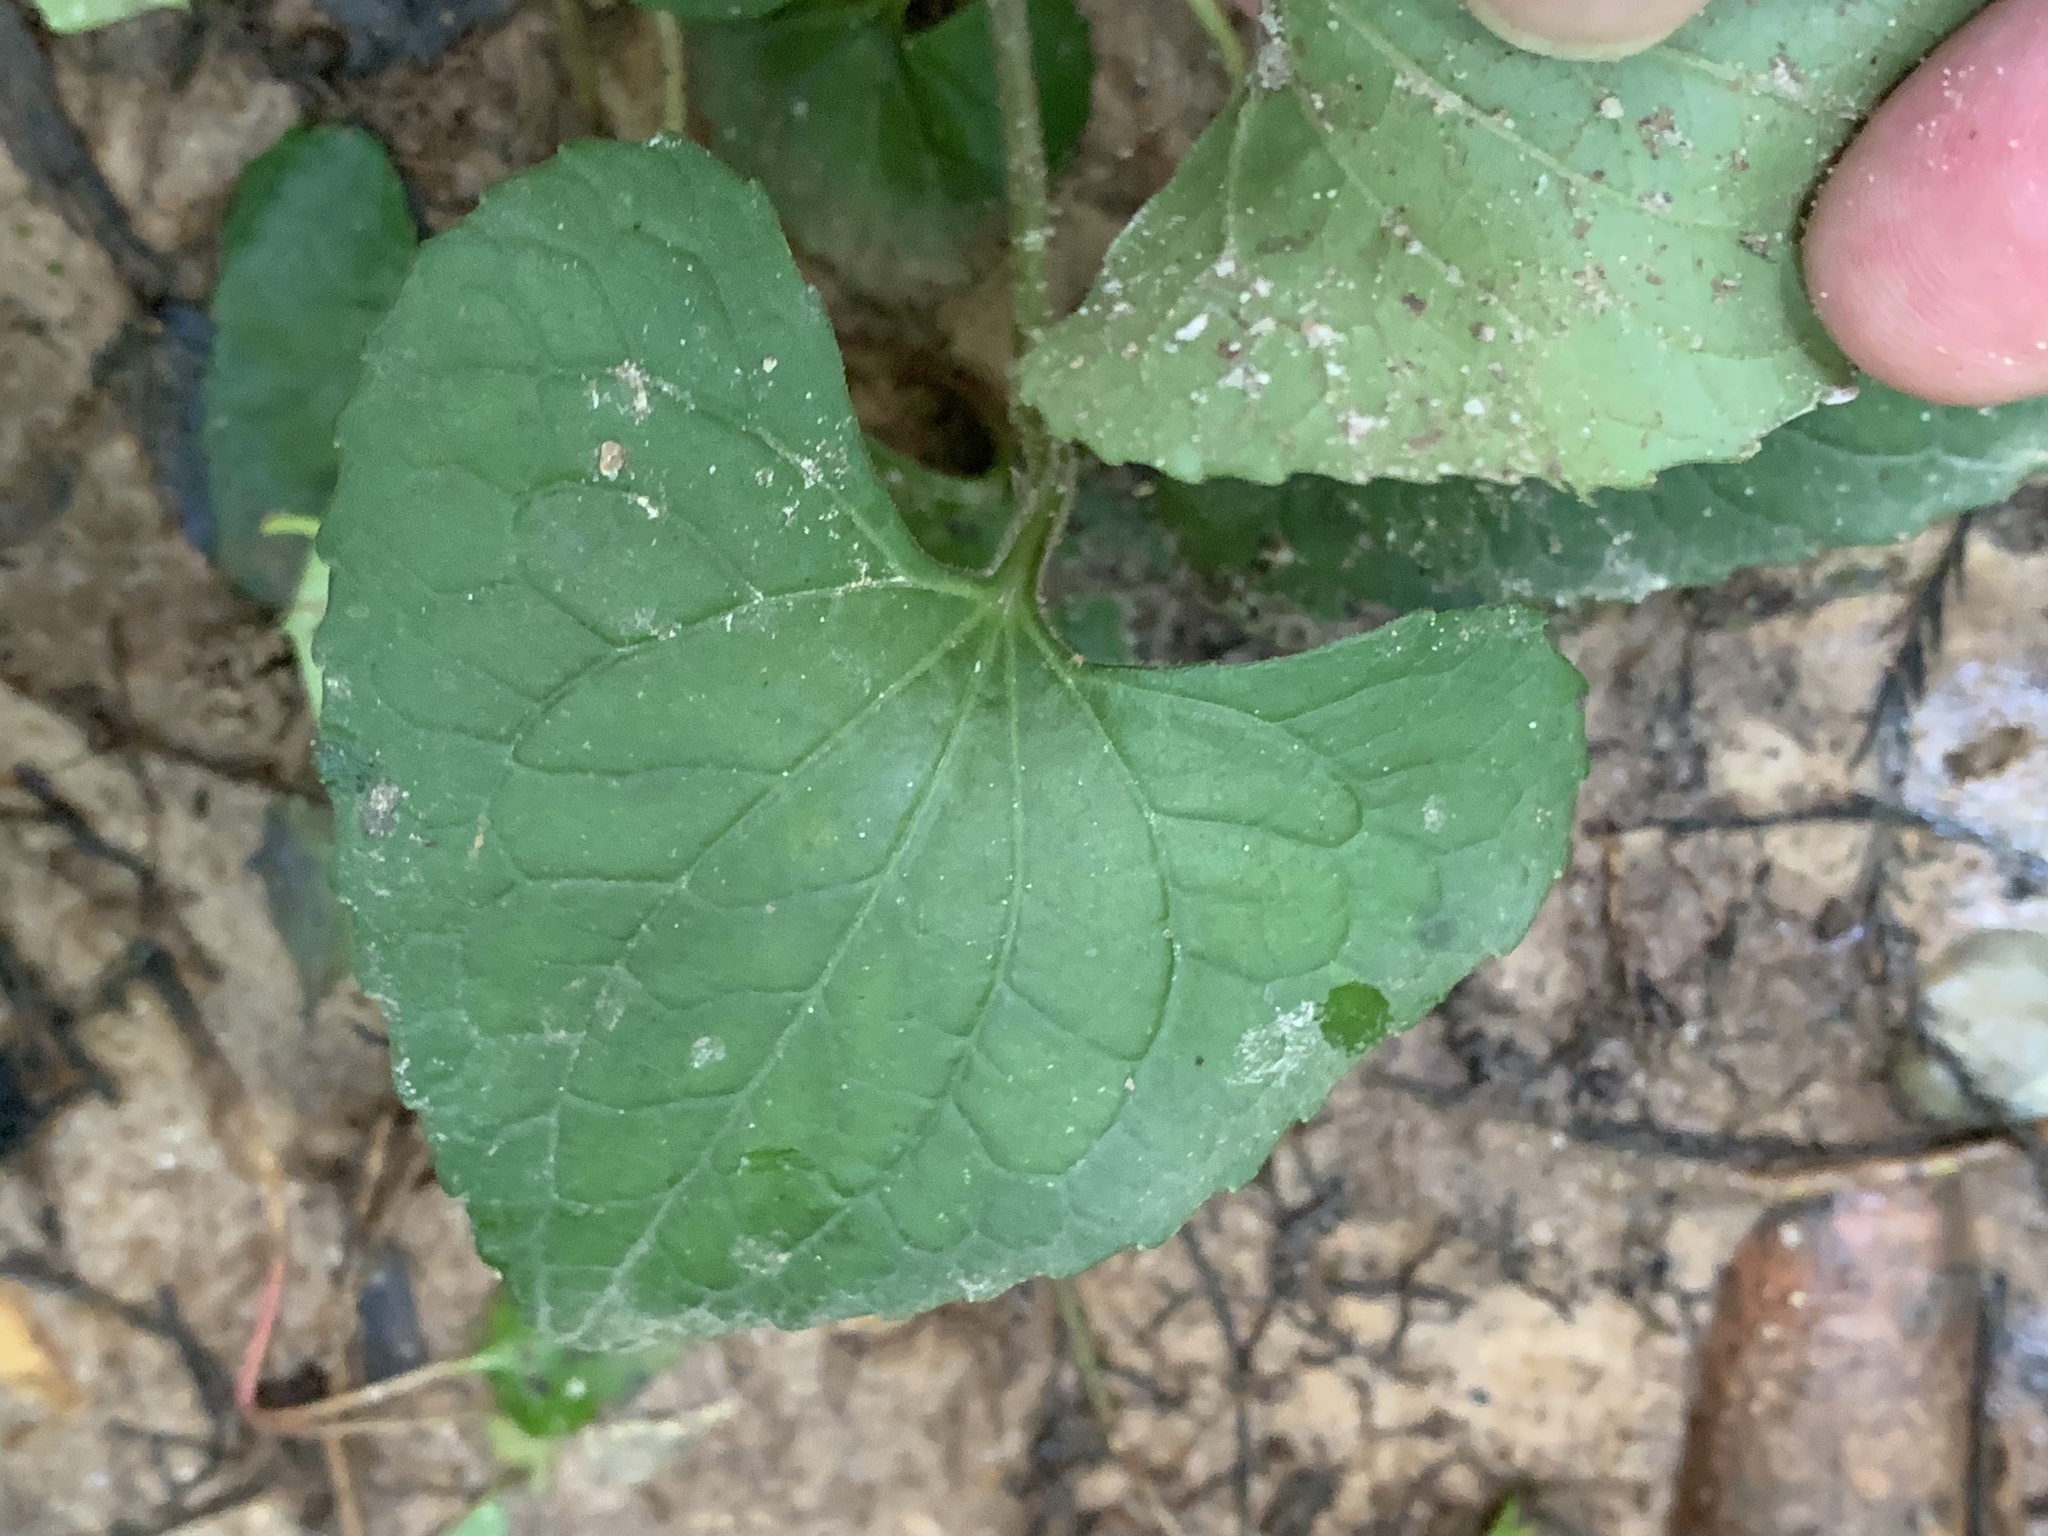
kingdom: Plantae
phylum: Tracheophyta
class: Magnoliopsida
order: Malpighiales
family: Violaceae
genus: Viola
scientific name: Viola sororia
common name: Dooryard violet
